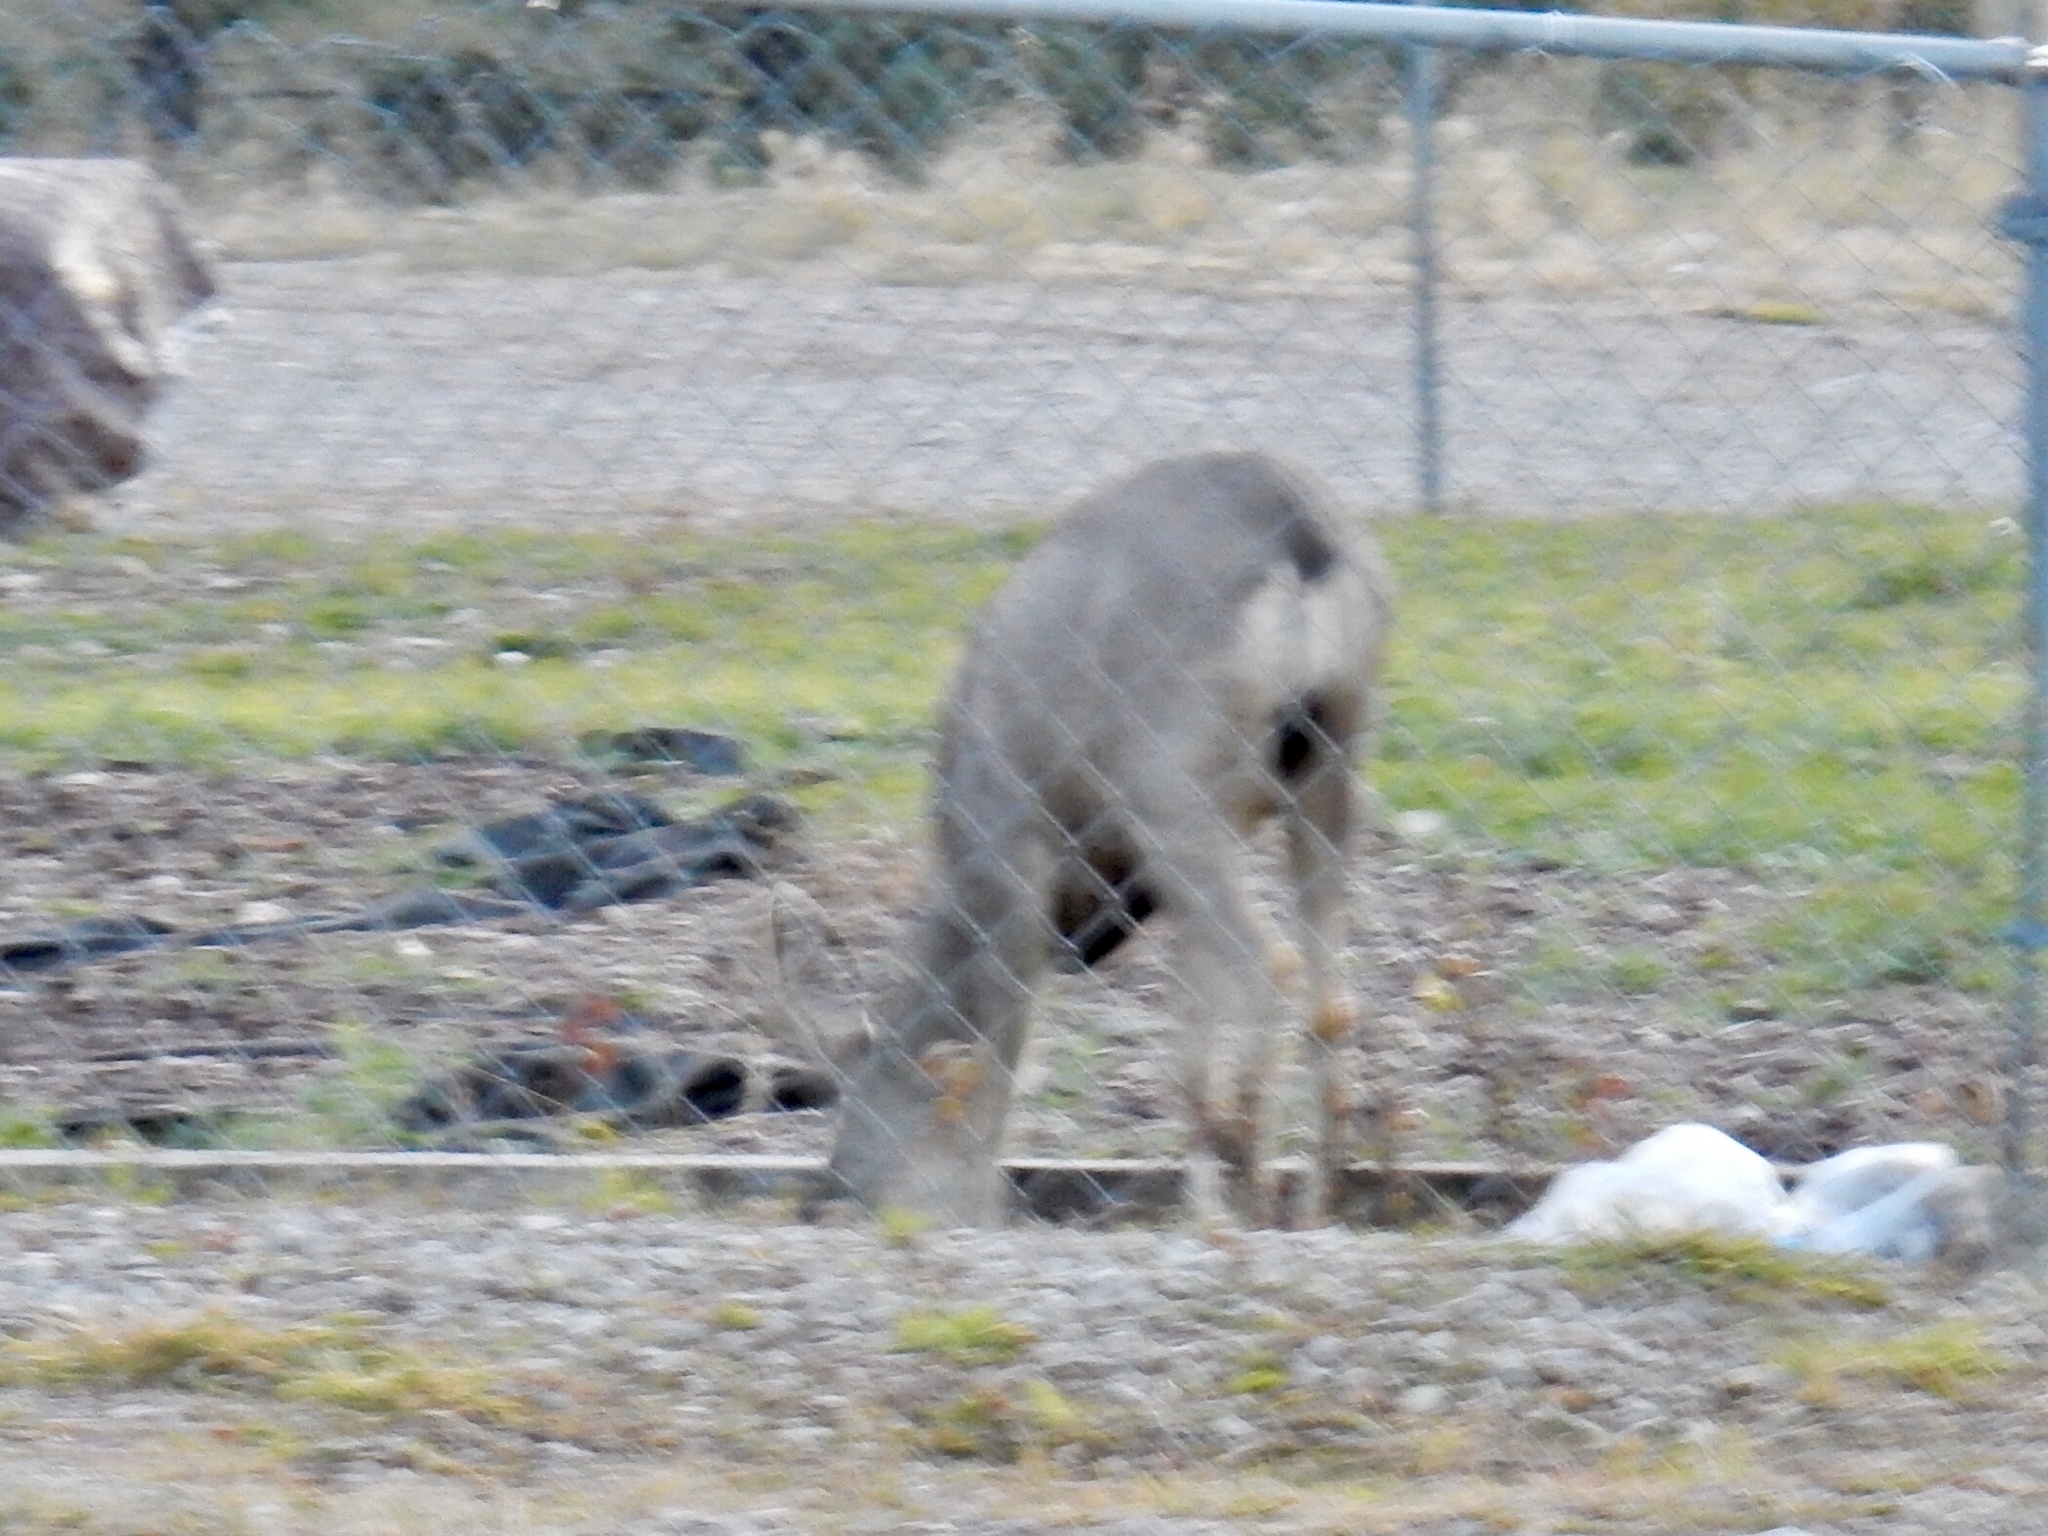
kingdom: Animalia
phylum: Chordata
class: Mammalia
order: Artiodactyla
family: Cervidae
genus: Odocoileus
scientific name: Odocoileus hemionus
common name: Mule deer
